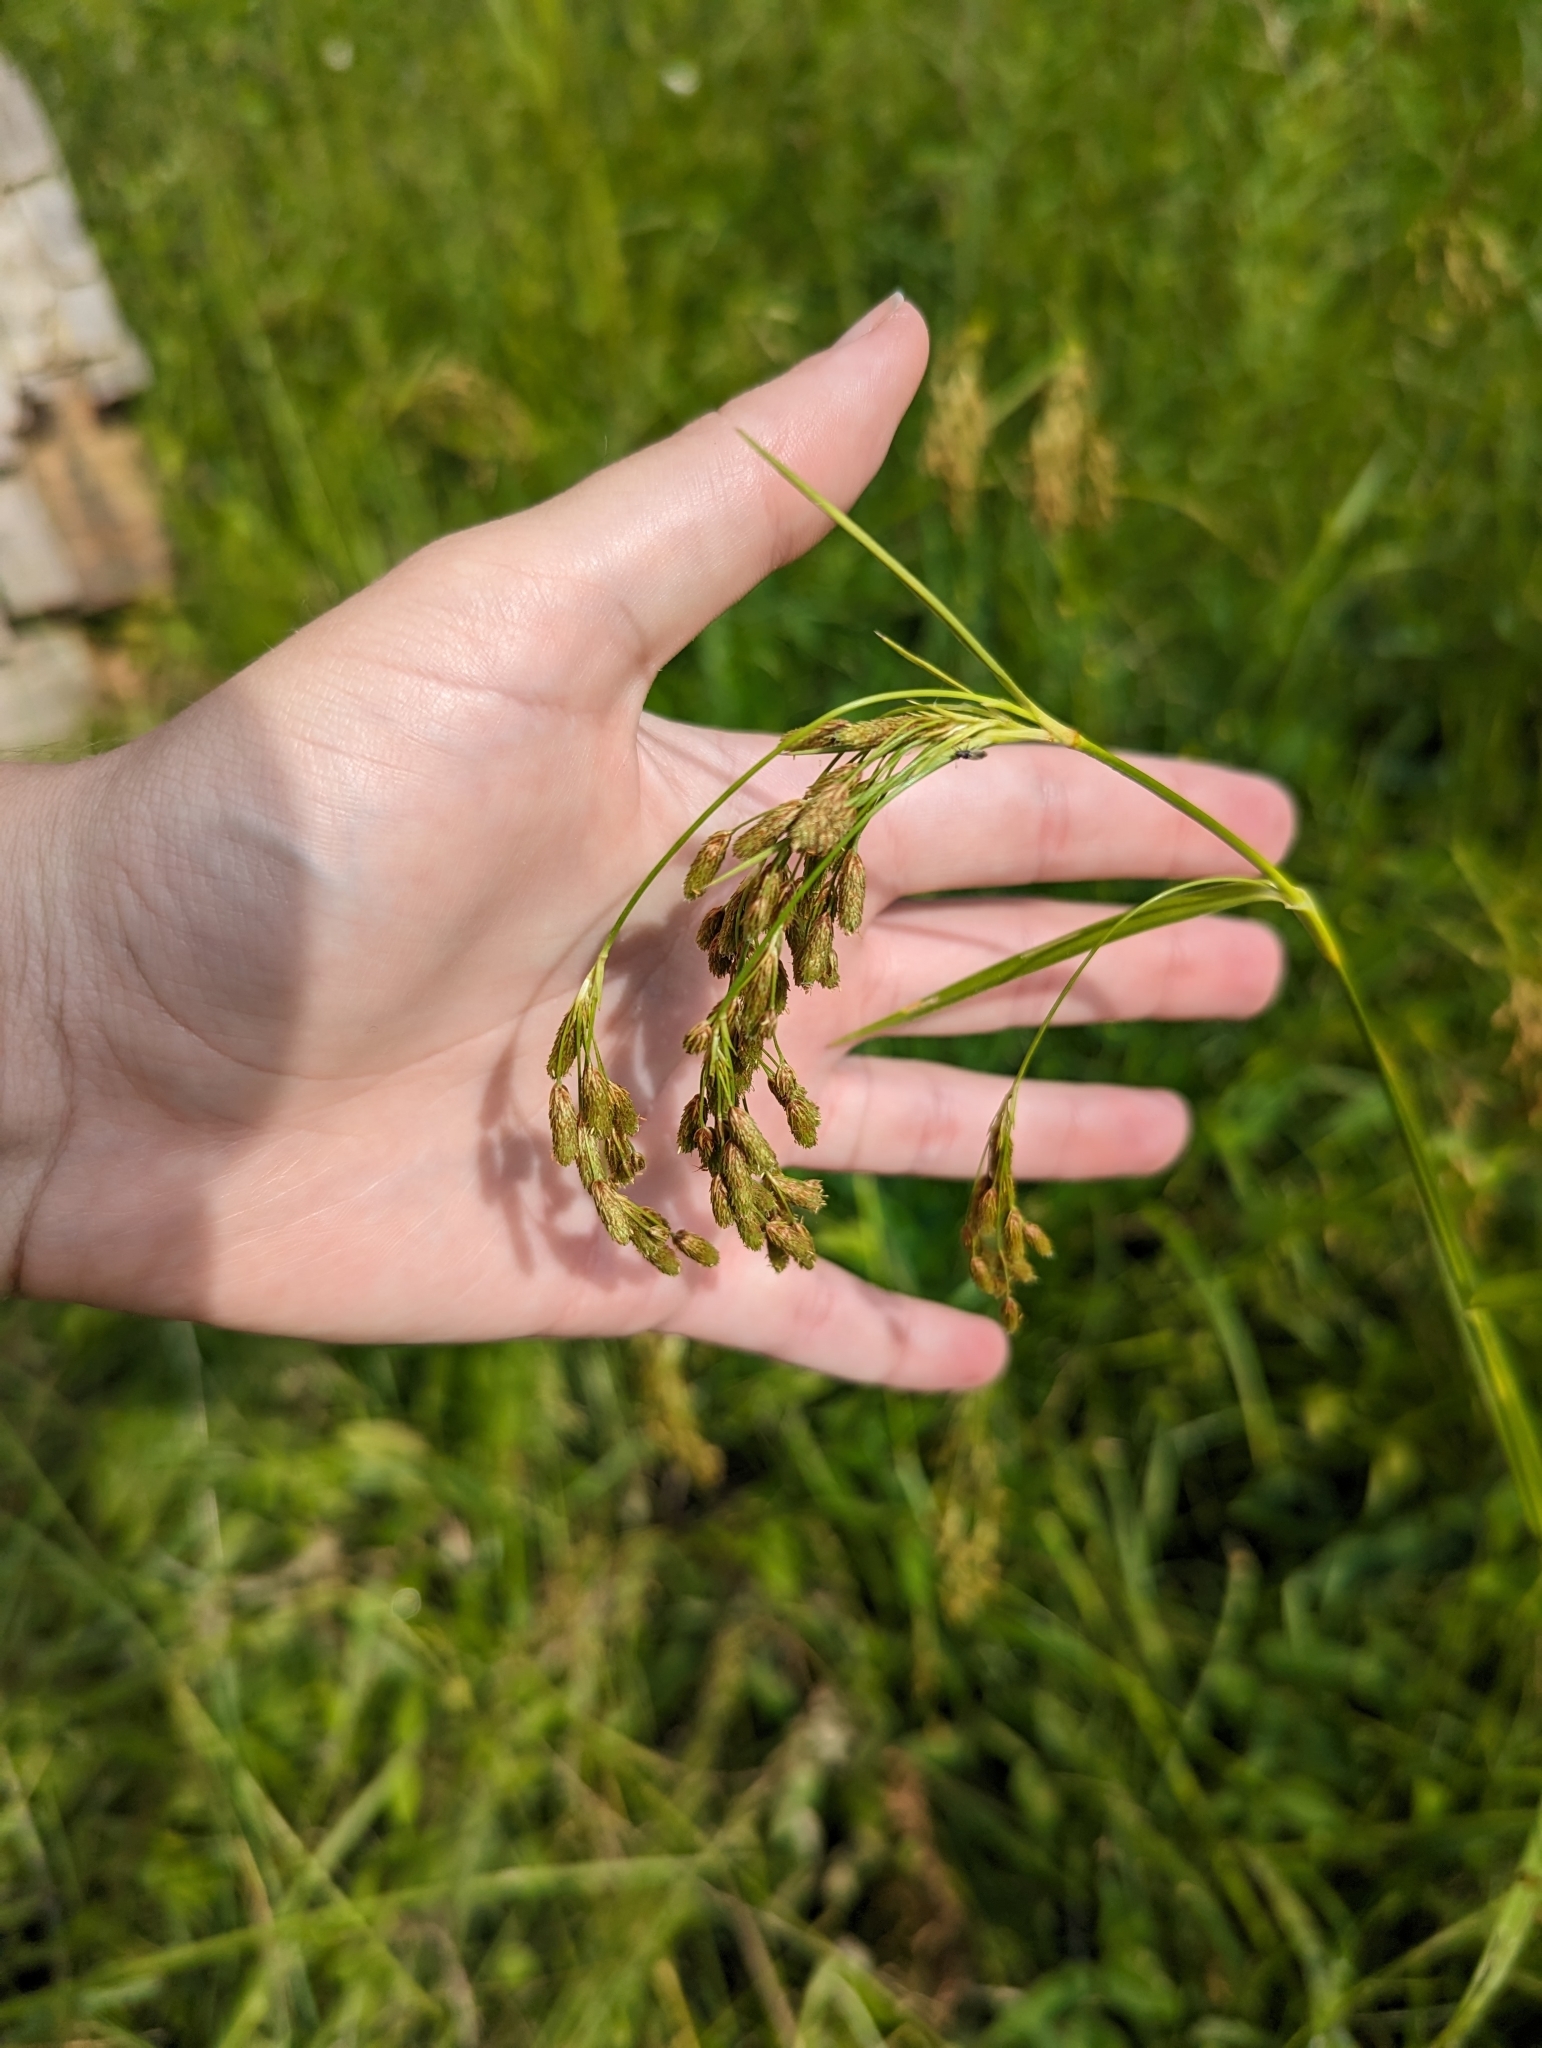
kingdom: Plantae
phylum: Tracheophyta
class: Liliopsida
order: Poales
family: Cyperaceae
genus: Scirpus
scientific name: Scirpus pendulus
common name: Nodding bulrush
